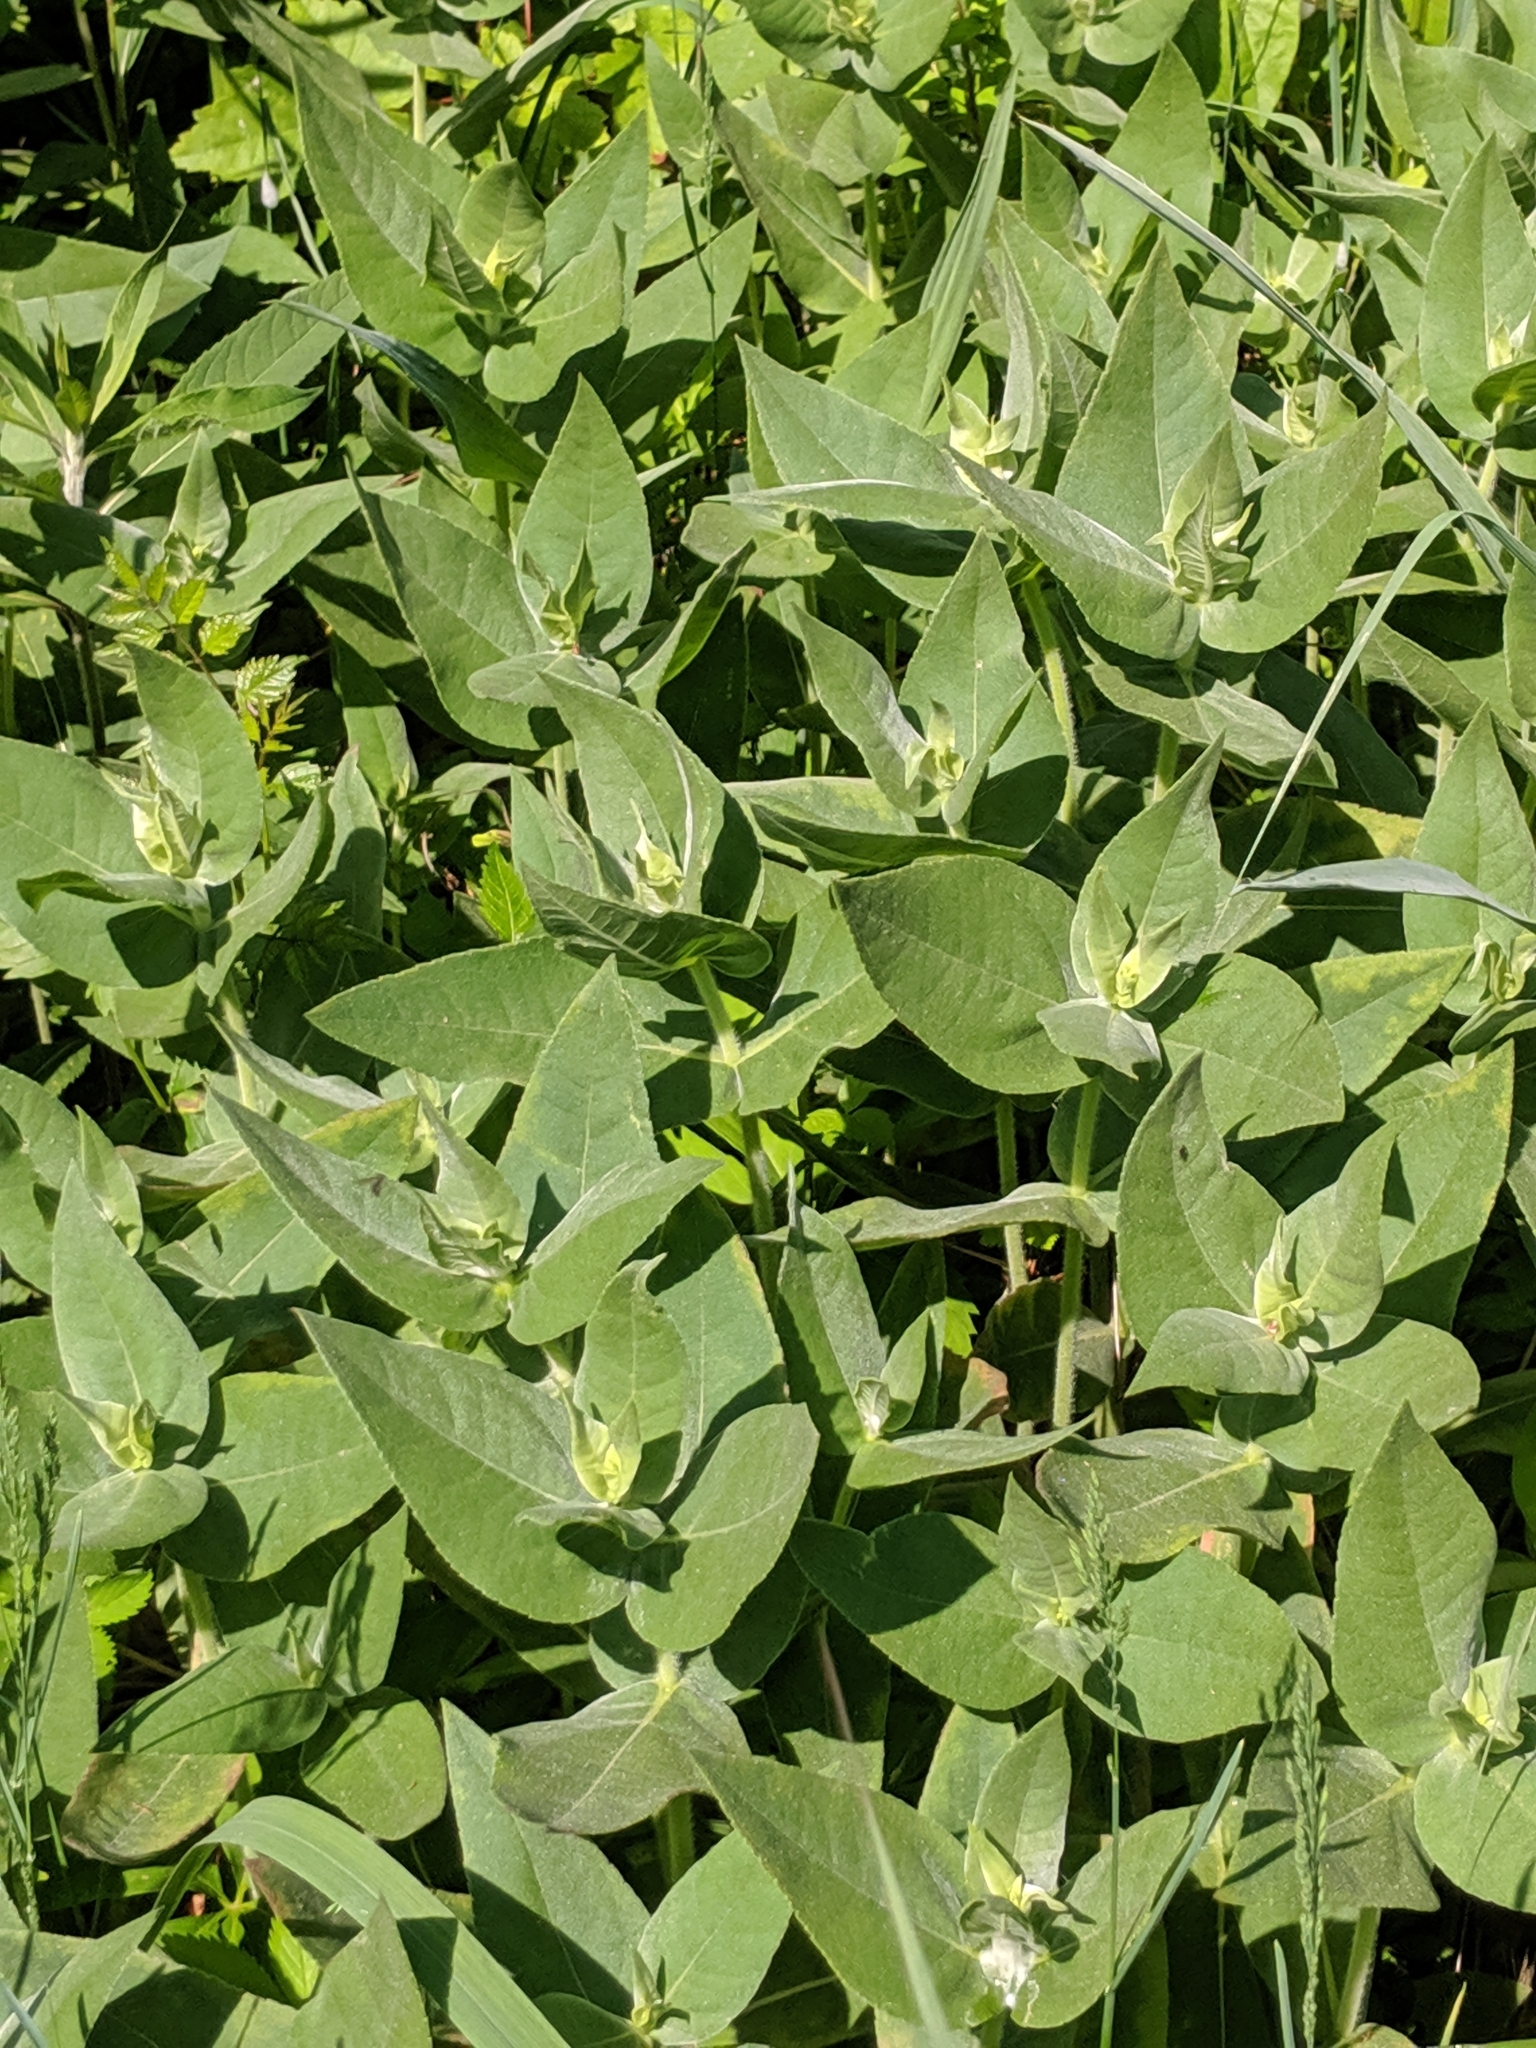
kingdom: Plantae
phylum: Tracheophyta
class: Magnoliopsida
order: Asterales
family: Asteraceae
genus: Helianthus
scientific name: Helianthus mollis
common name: Ashy sunflower
